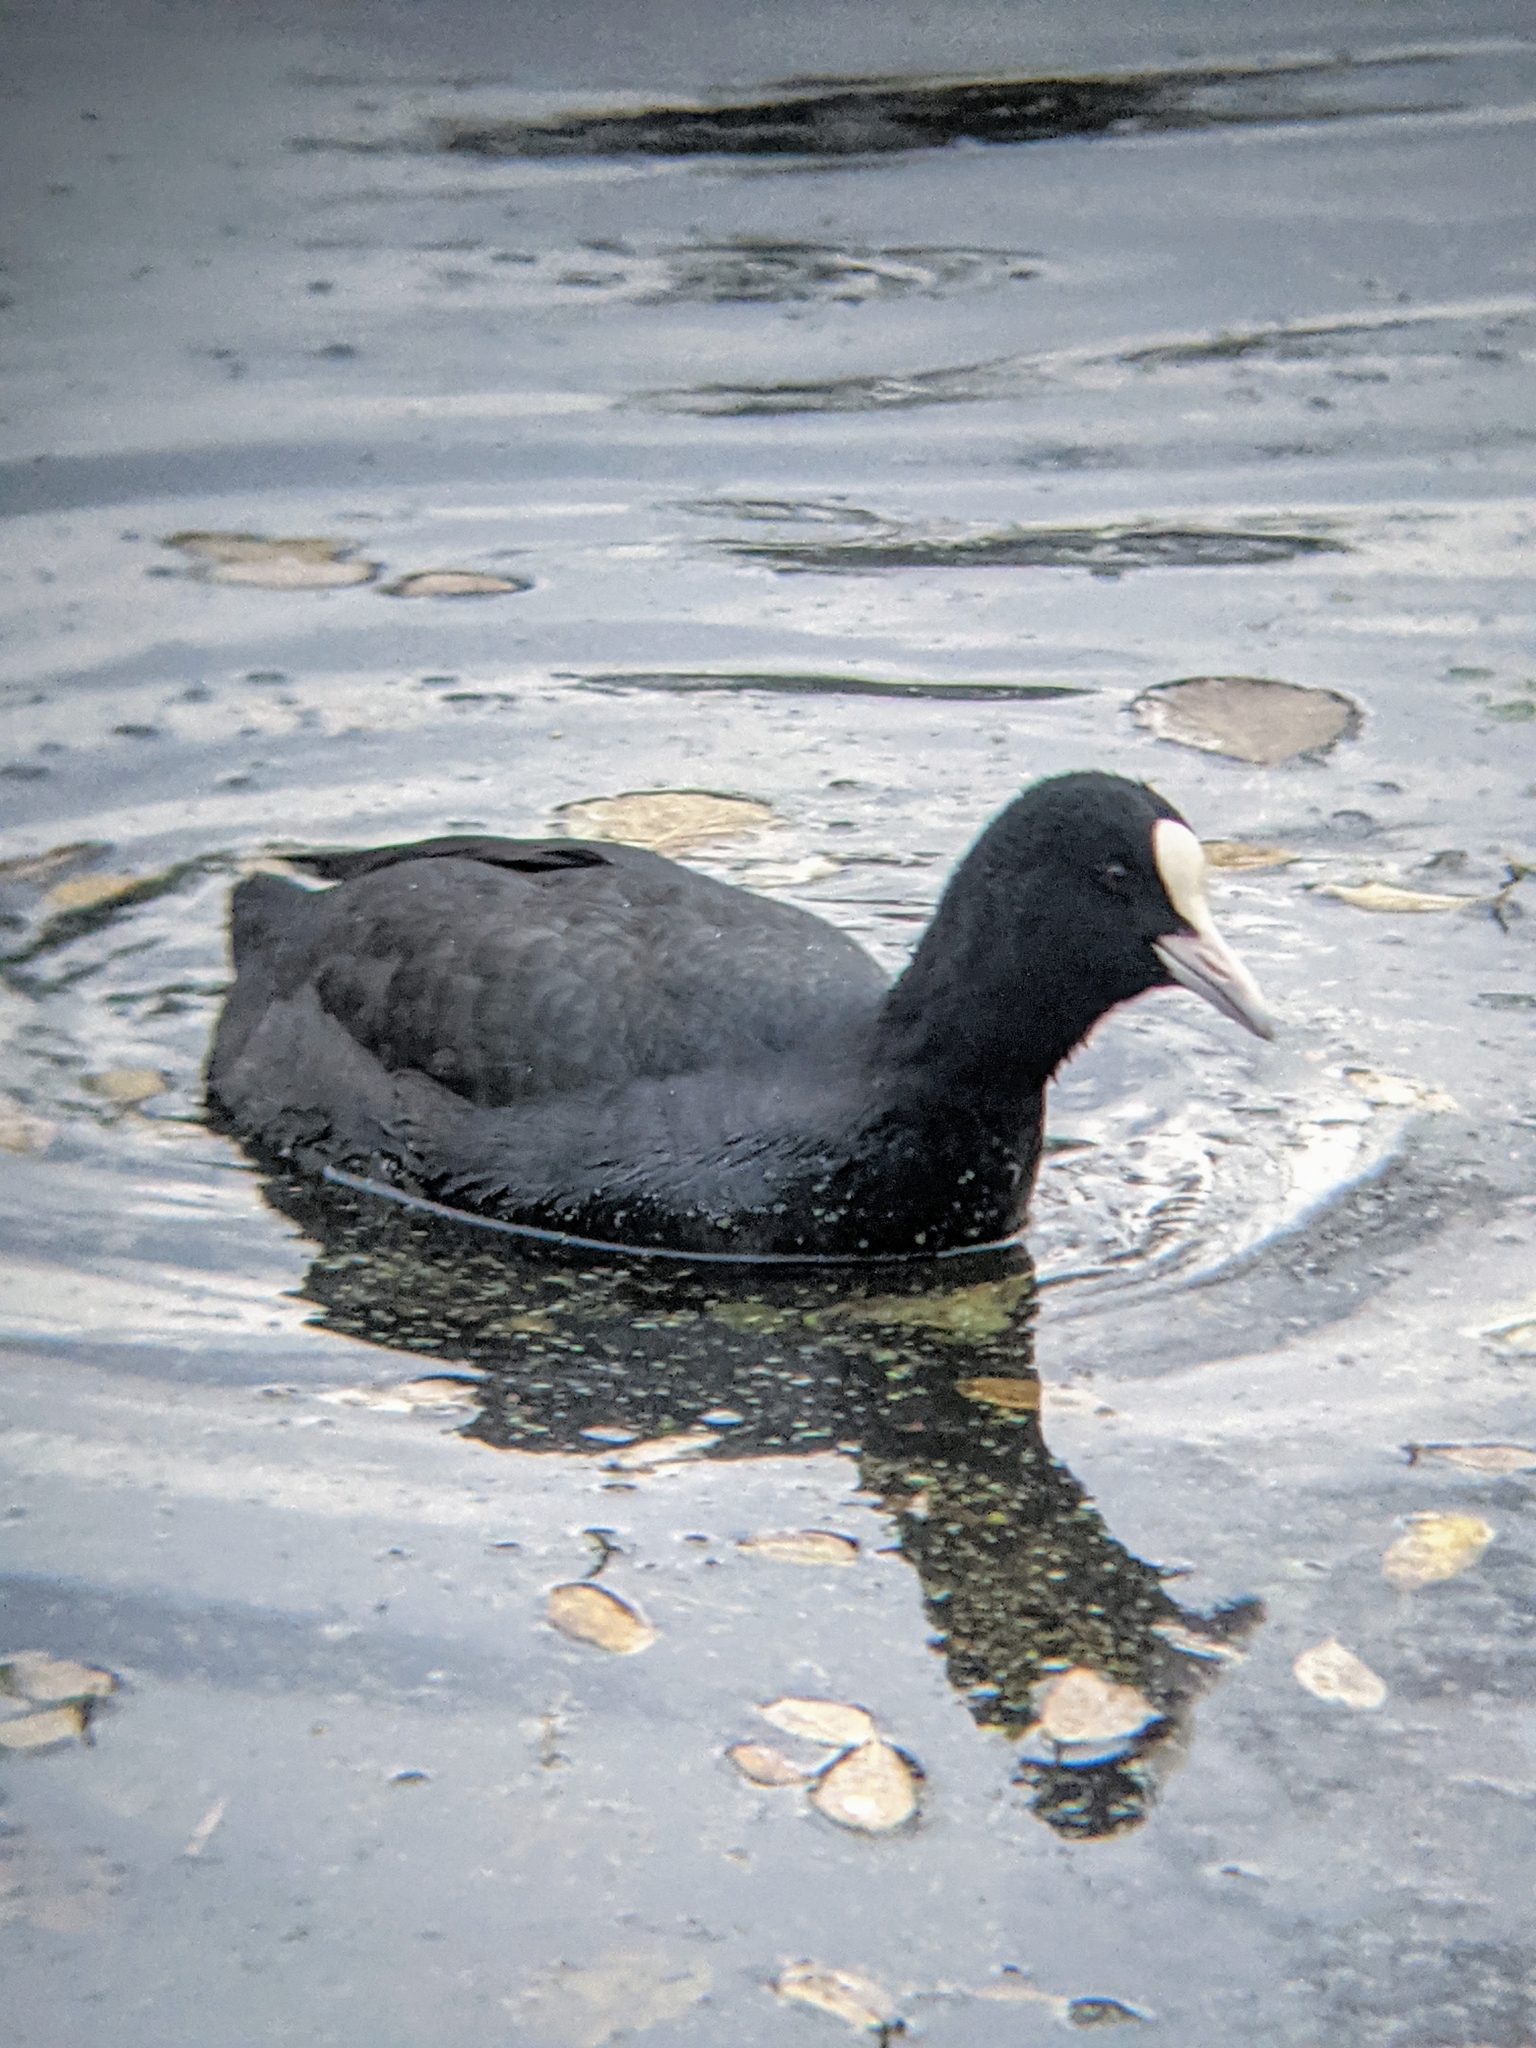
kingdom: Animalia
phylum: Chordata
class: Aves
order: Gruiformes
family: Rallidae
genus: Fulica
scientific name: Fulica atra
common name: Eurasian coot
